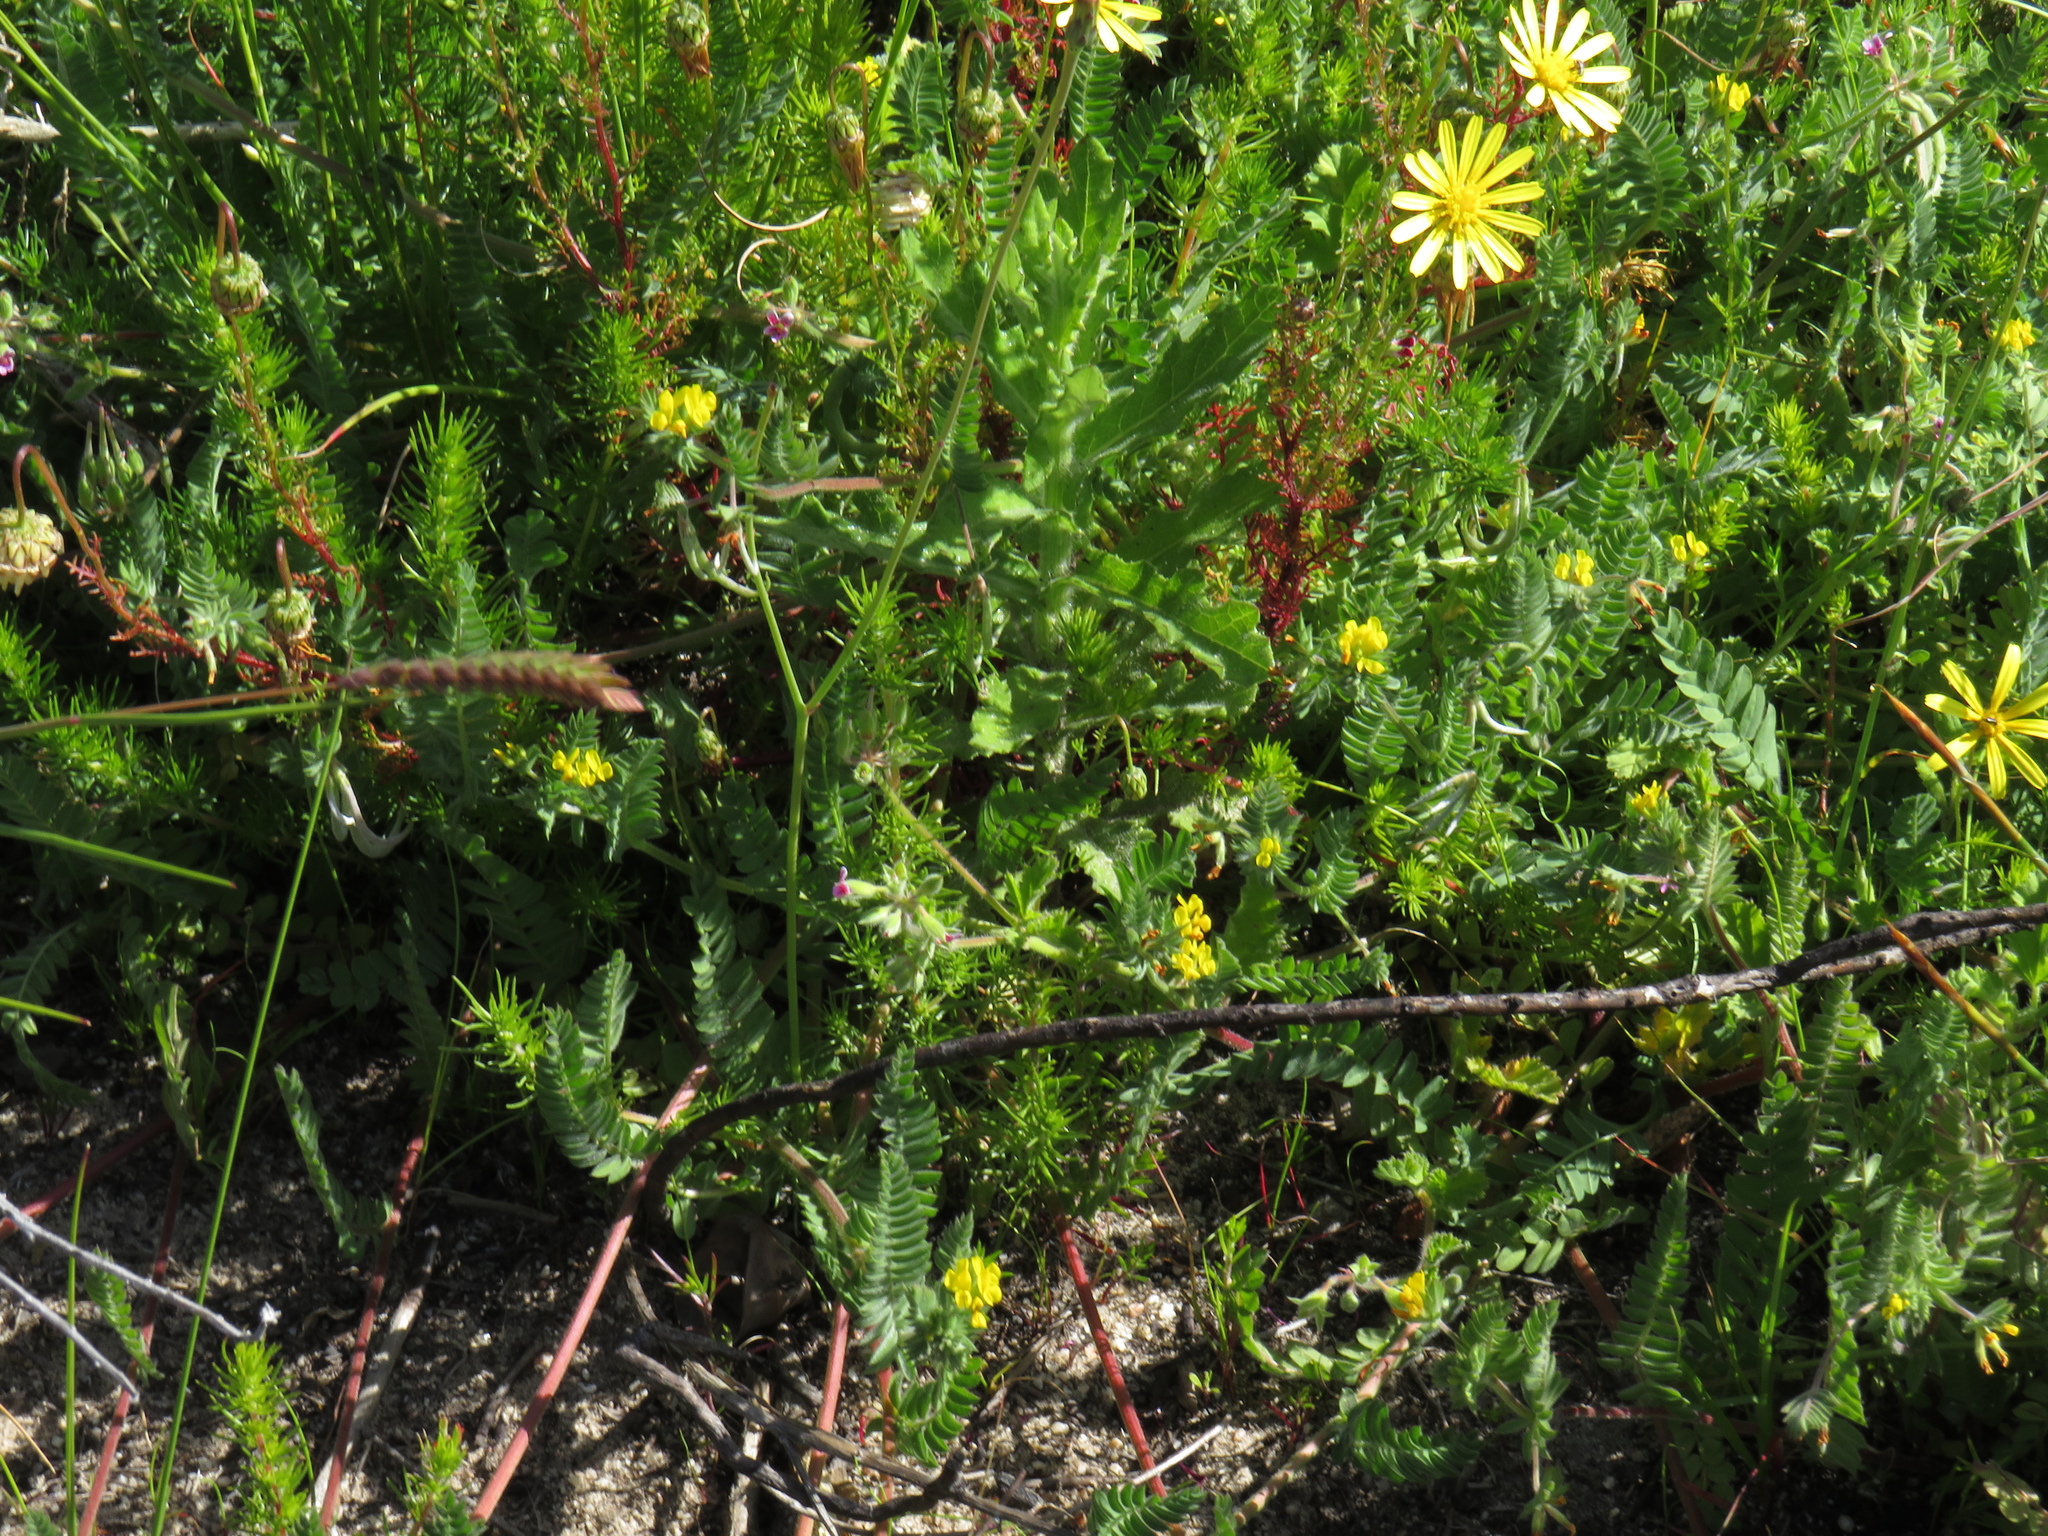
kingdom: Plantae
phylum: Tracheophyta
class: Magnoliopsida
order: Fabales
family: Fabaceae
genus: Ornithopus
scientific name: Ornithopus compressus
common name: Yellow serradella
